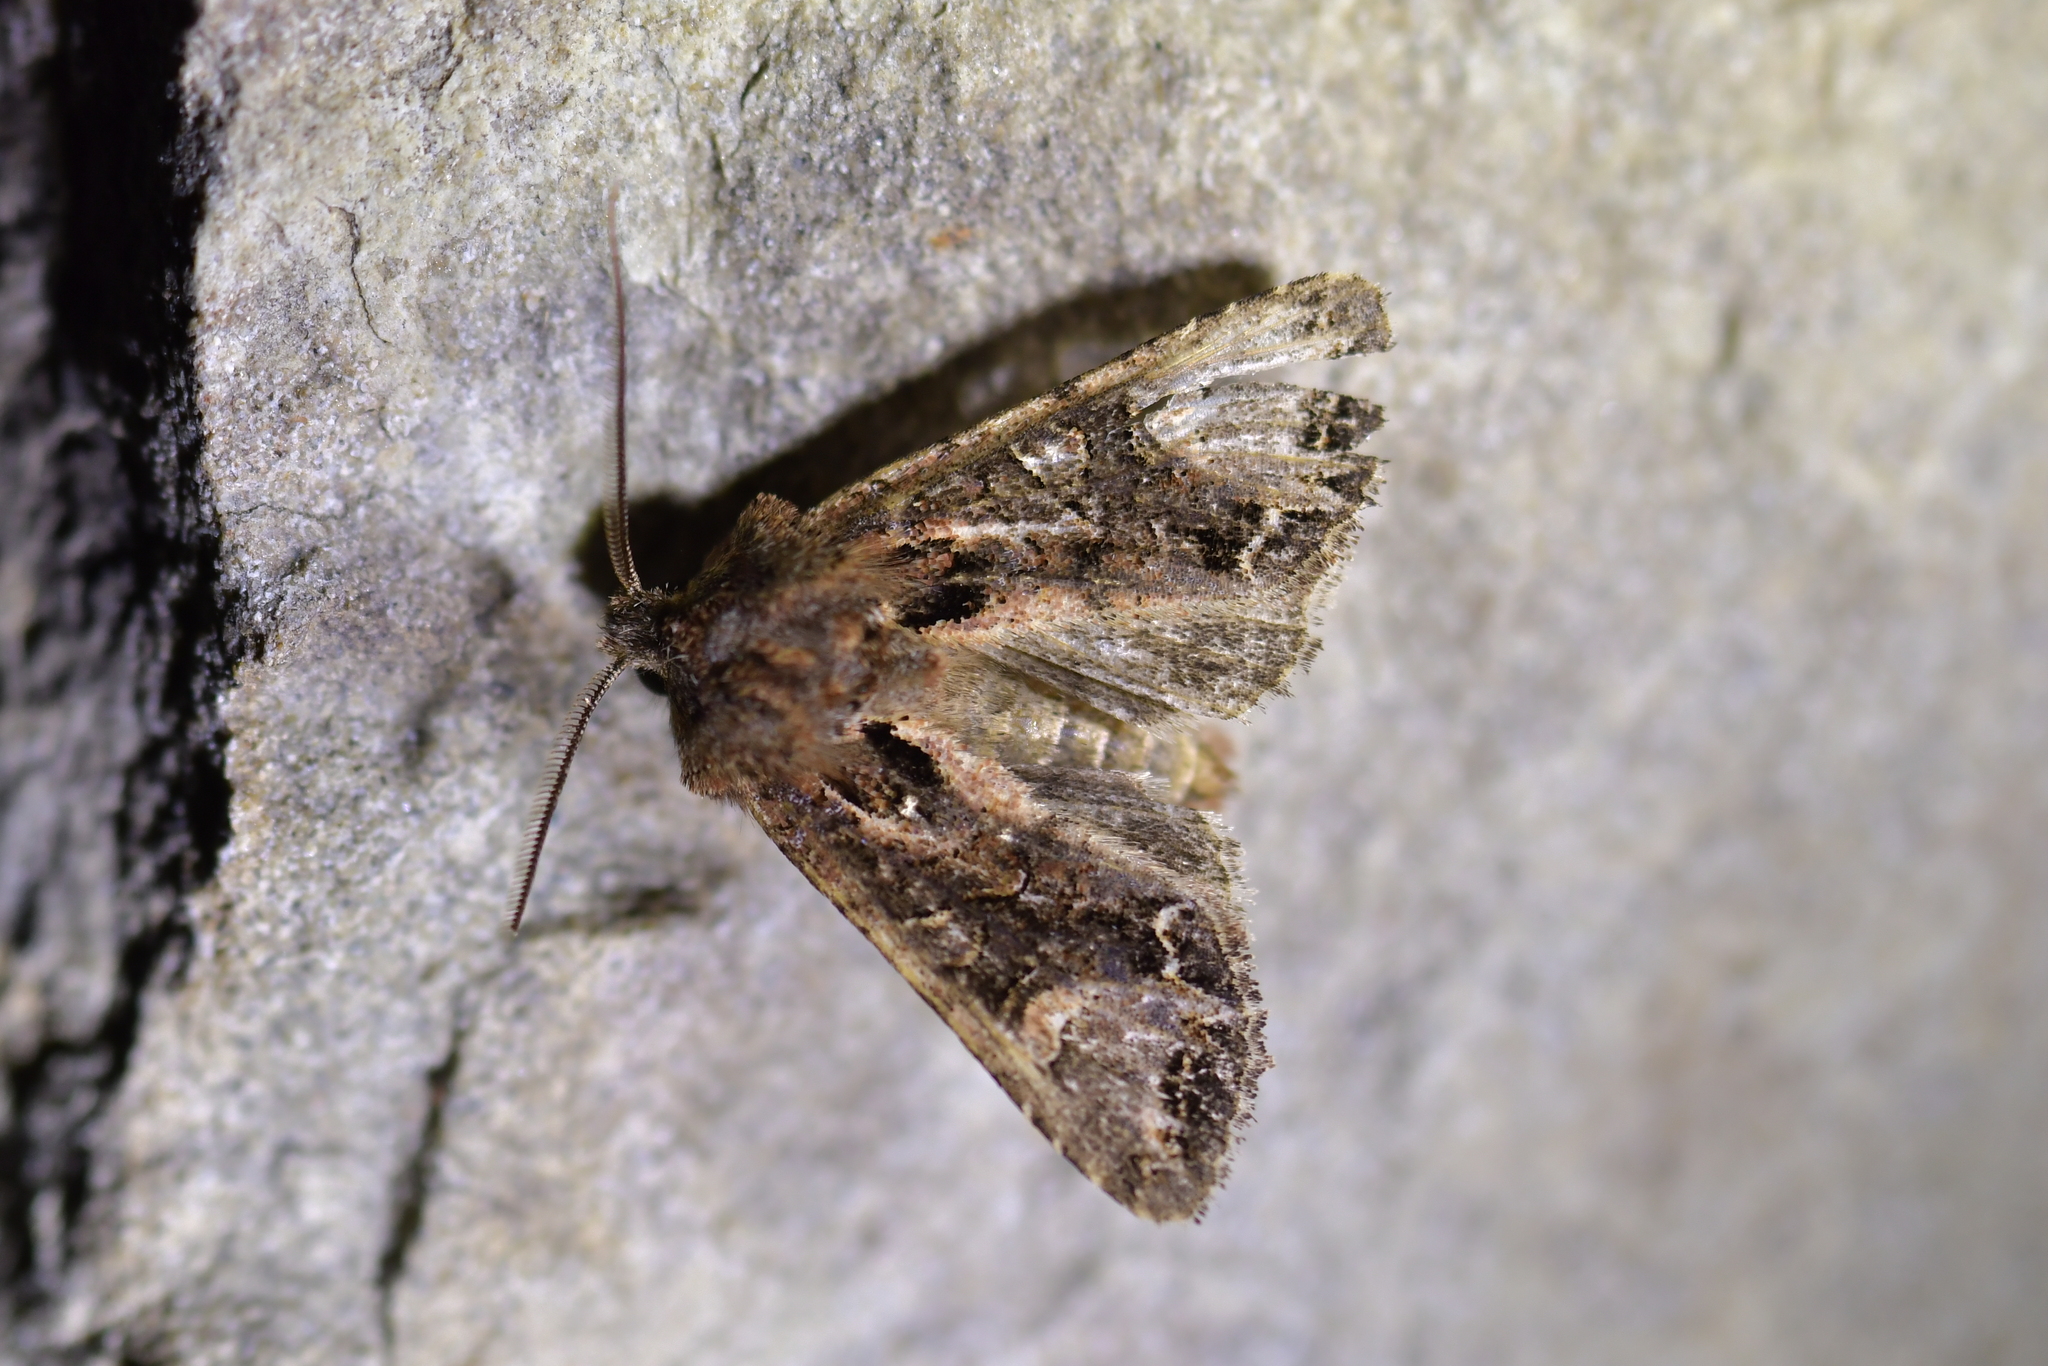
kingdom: Animalia
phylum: Arthropoda
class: Insecta
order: Lepidoptera
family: Noctuidae
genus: Ichneutica
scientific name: Ichneutica insignis
